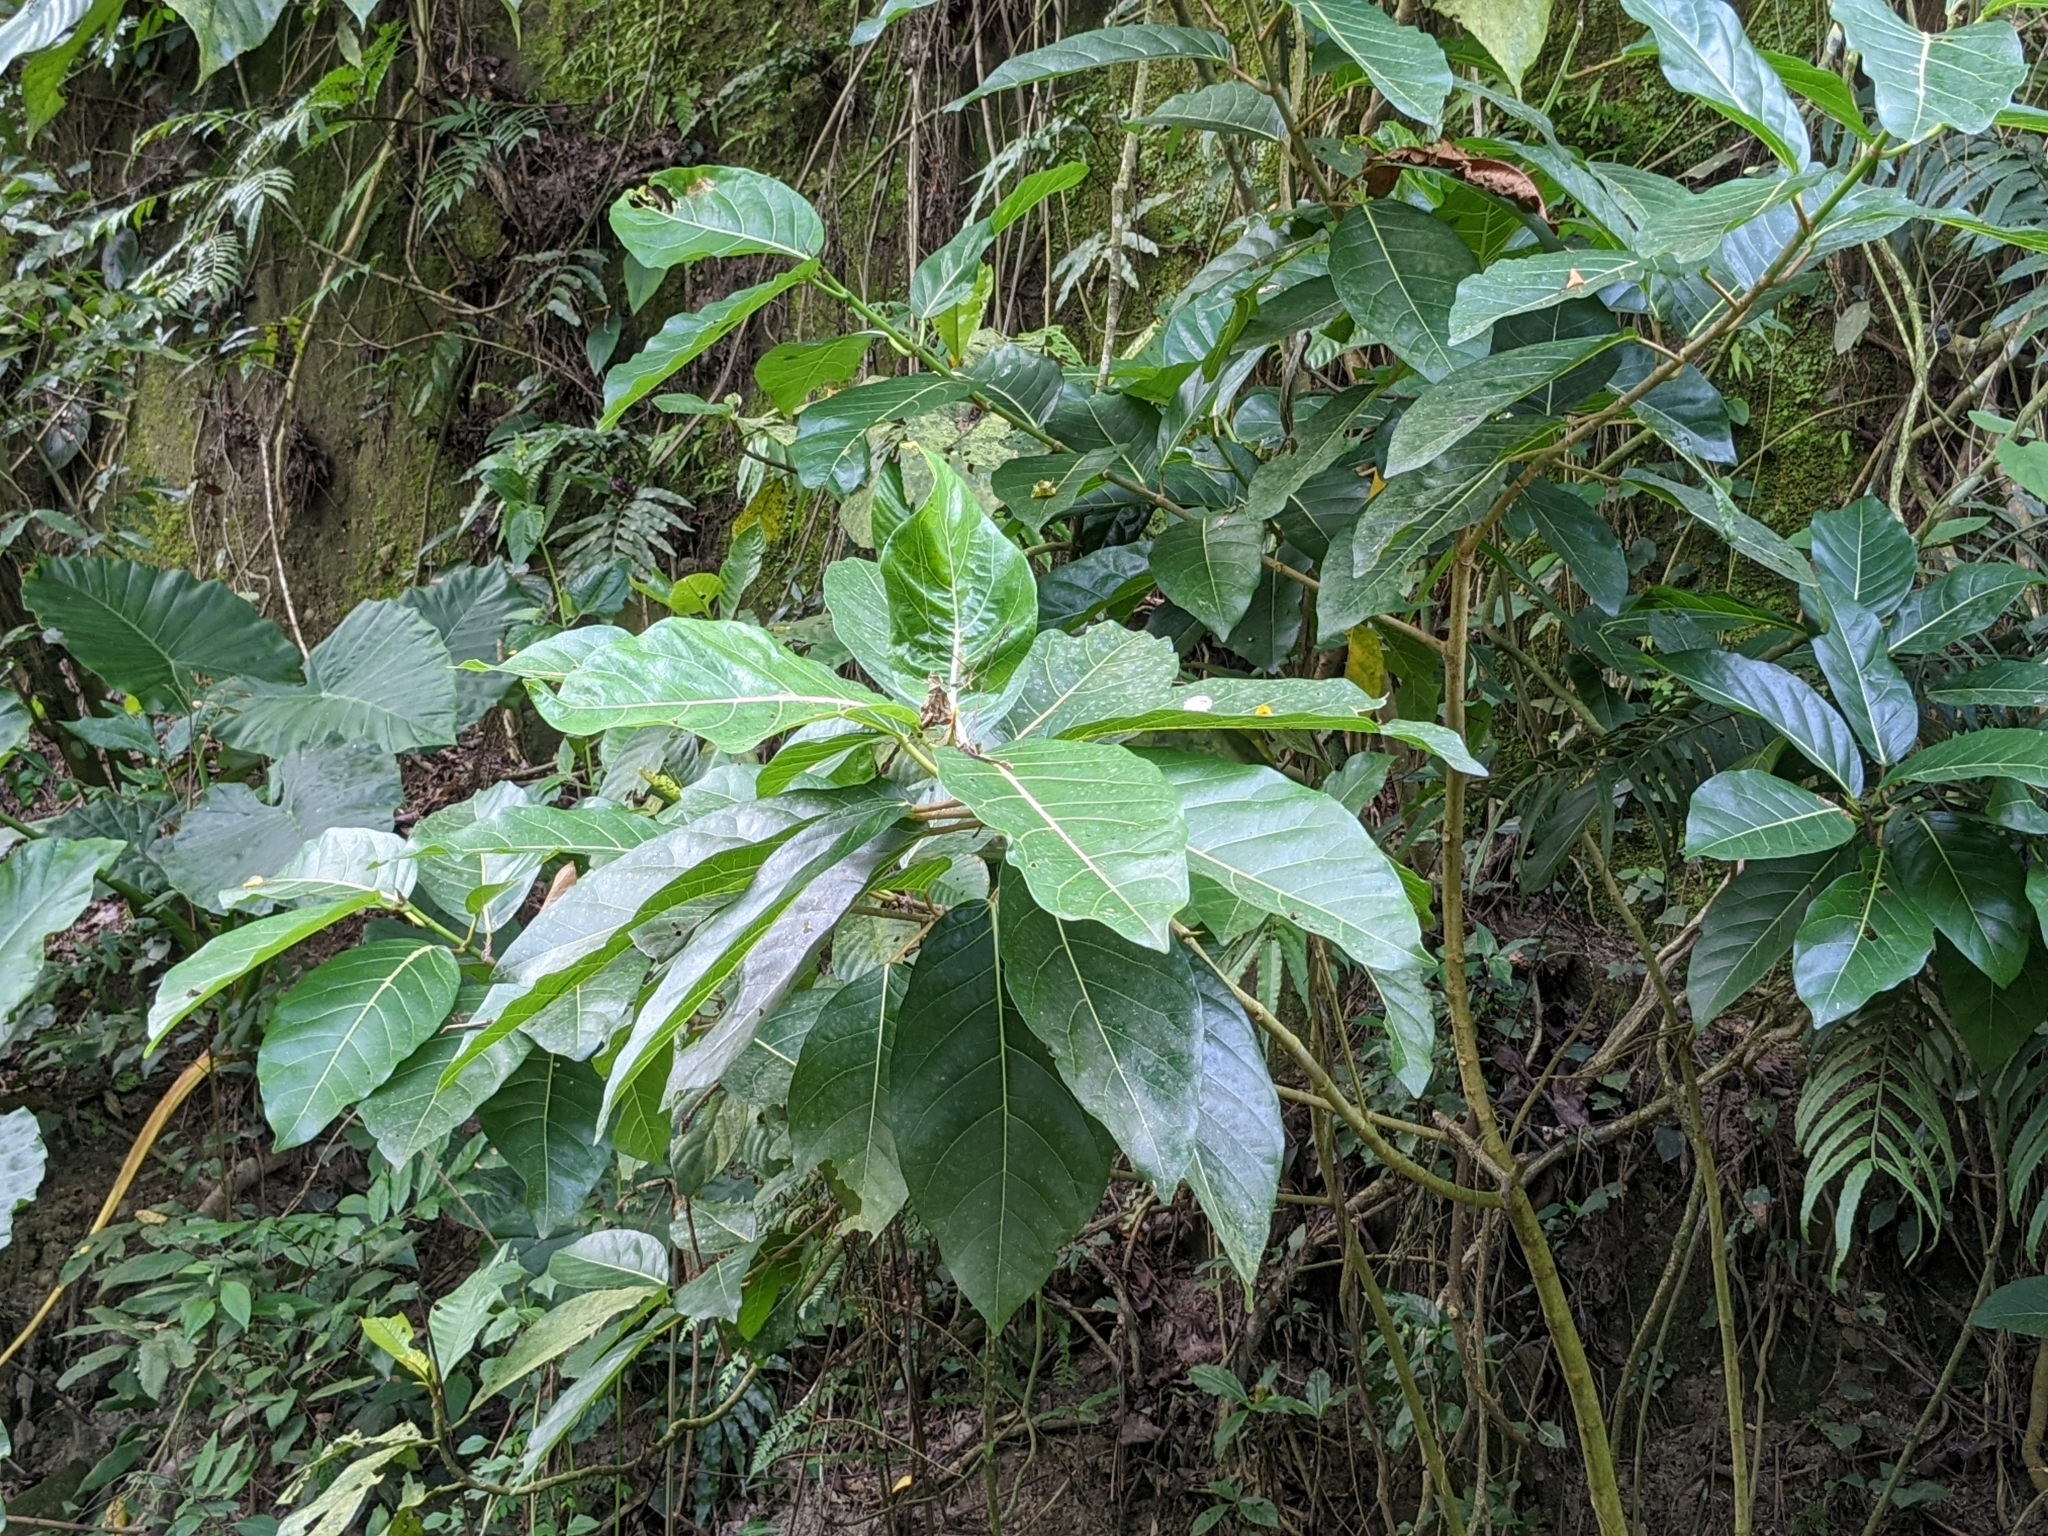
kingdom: Plantae
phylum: Tracheophyta
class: Magnoliopsida
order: Rosales
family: Moraceae
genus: Ficus
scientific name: Ficus septica
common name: Septic fig
